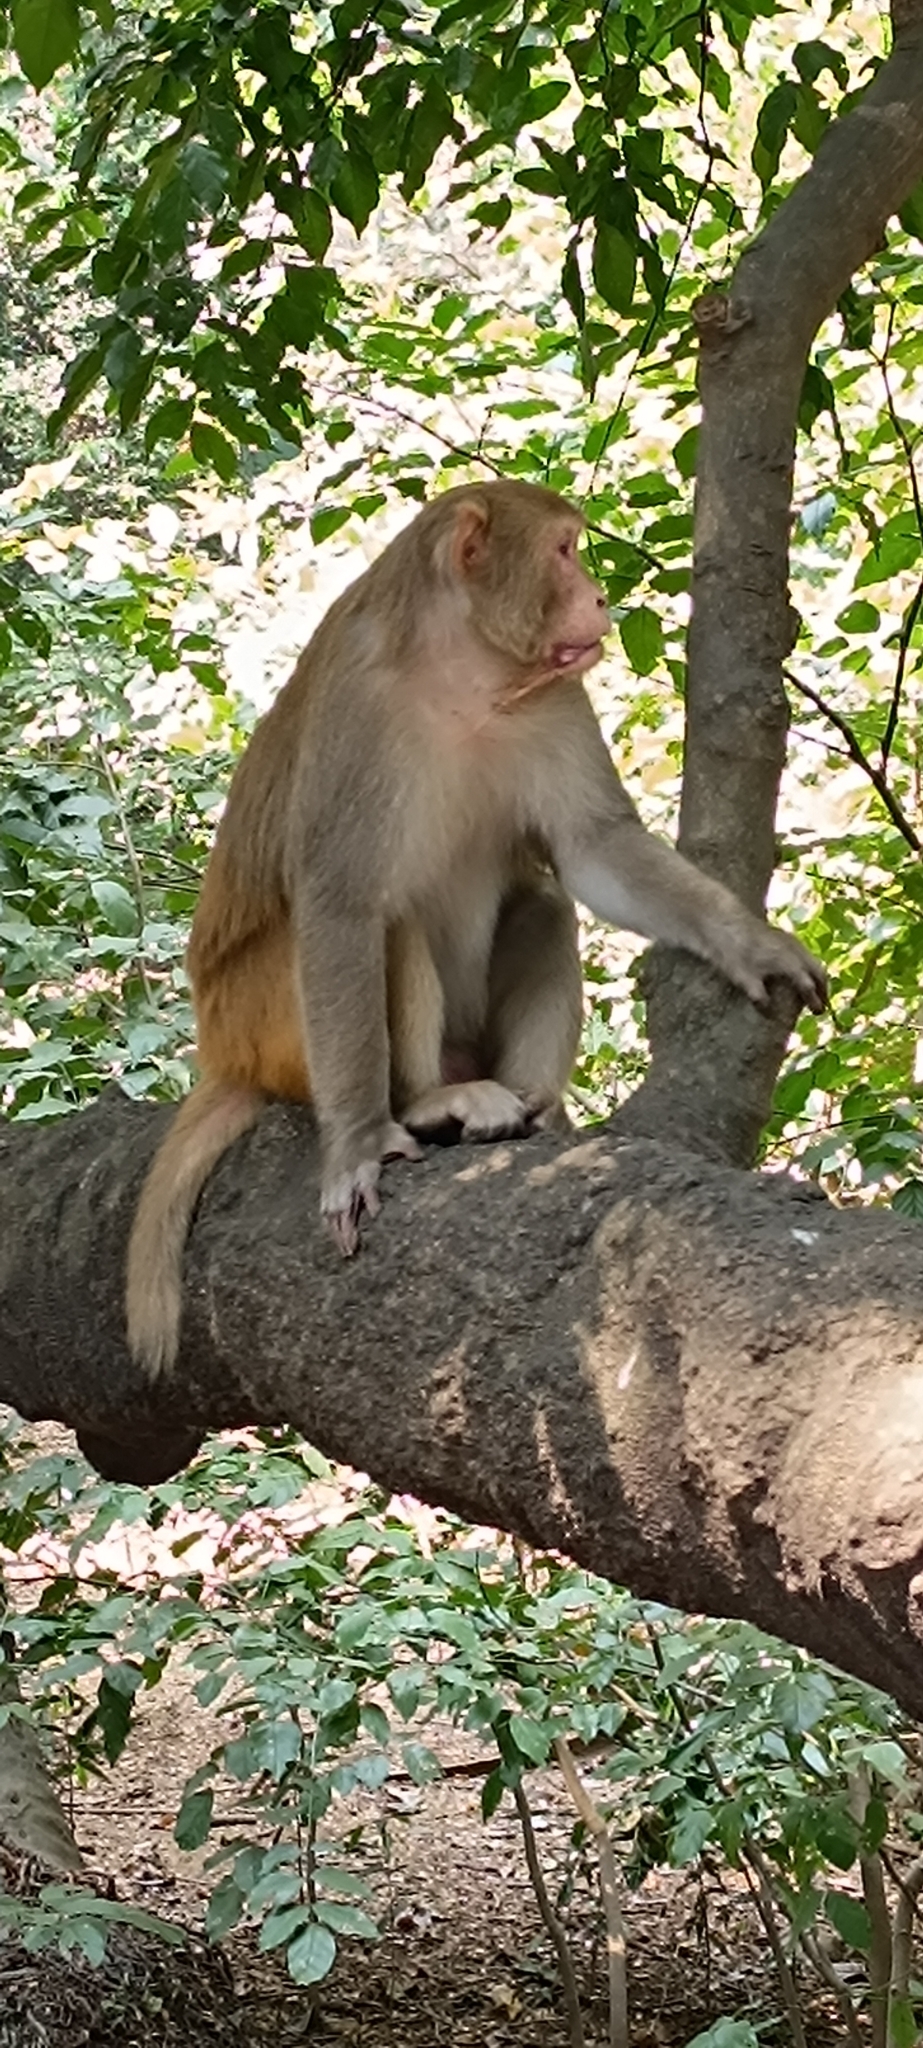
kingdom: Animalia
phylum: Chordata
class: Mammalia
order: Primates
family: Cercopithecidae
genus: Macaca
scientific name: Macaca mulatta
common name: Rhesus monkey
